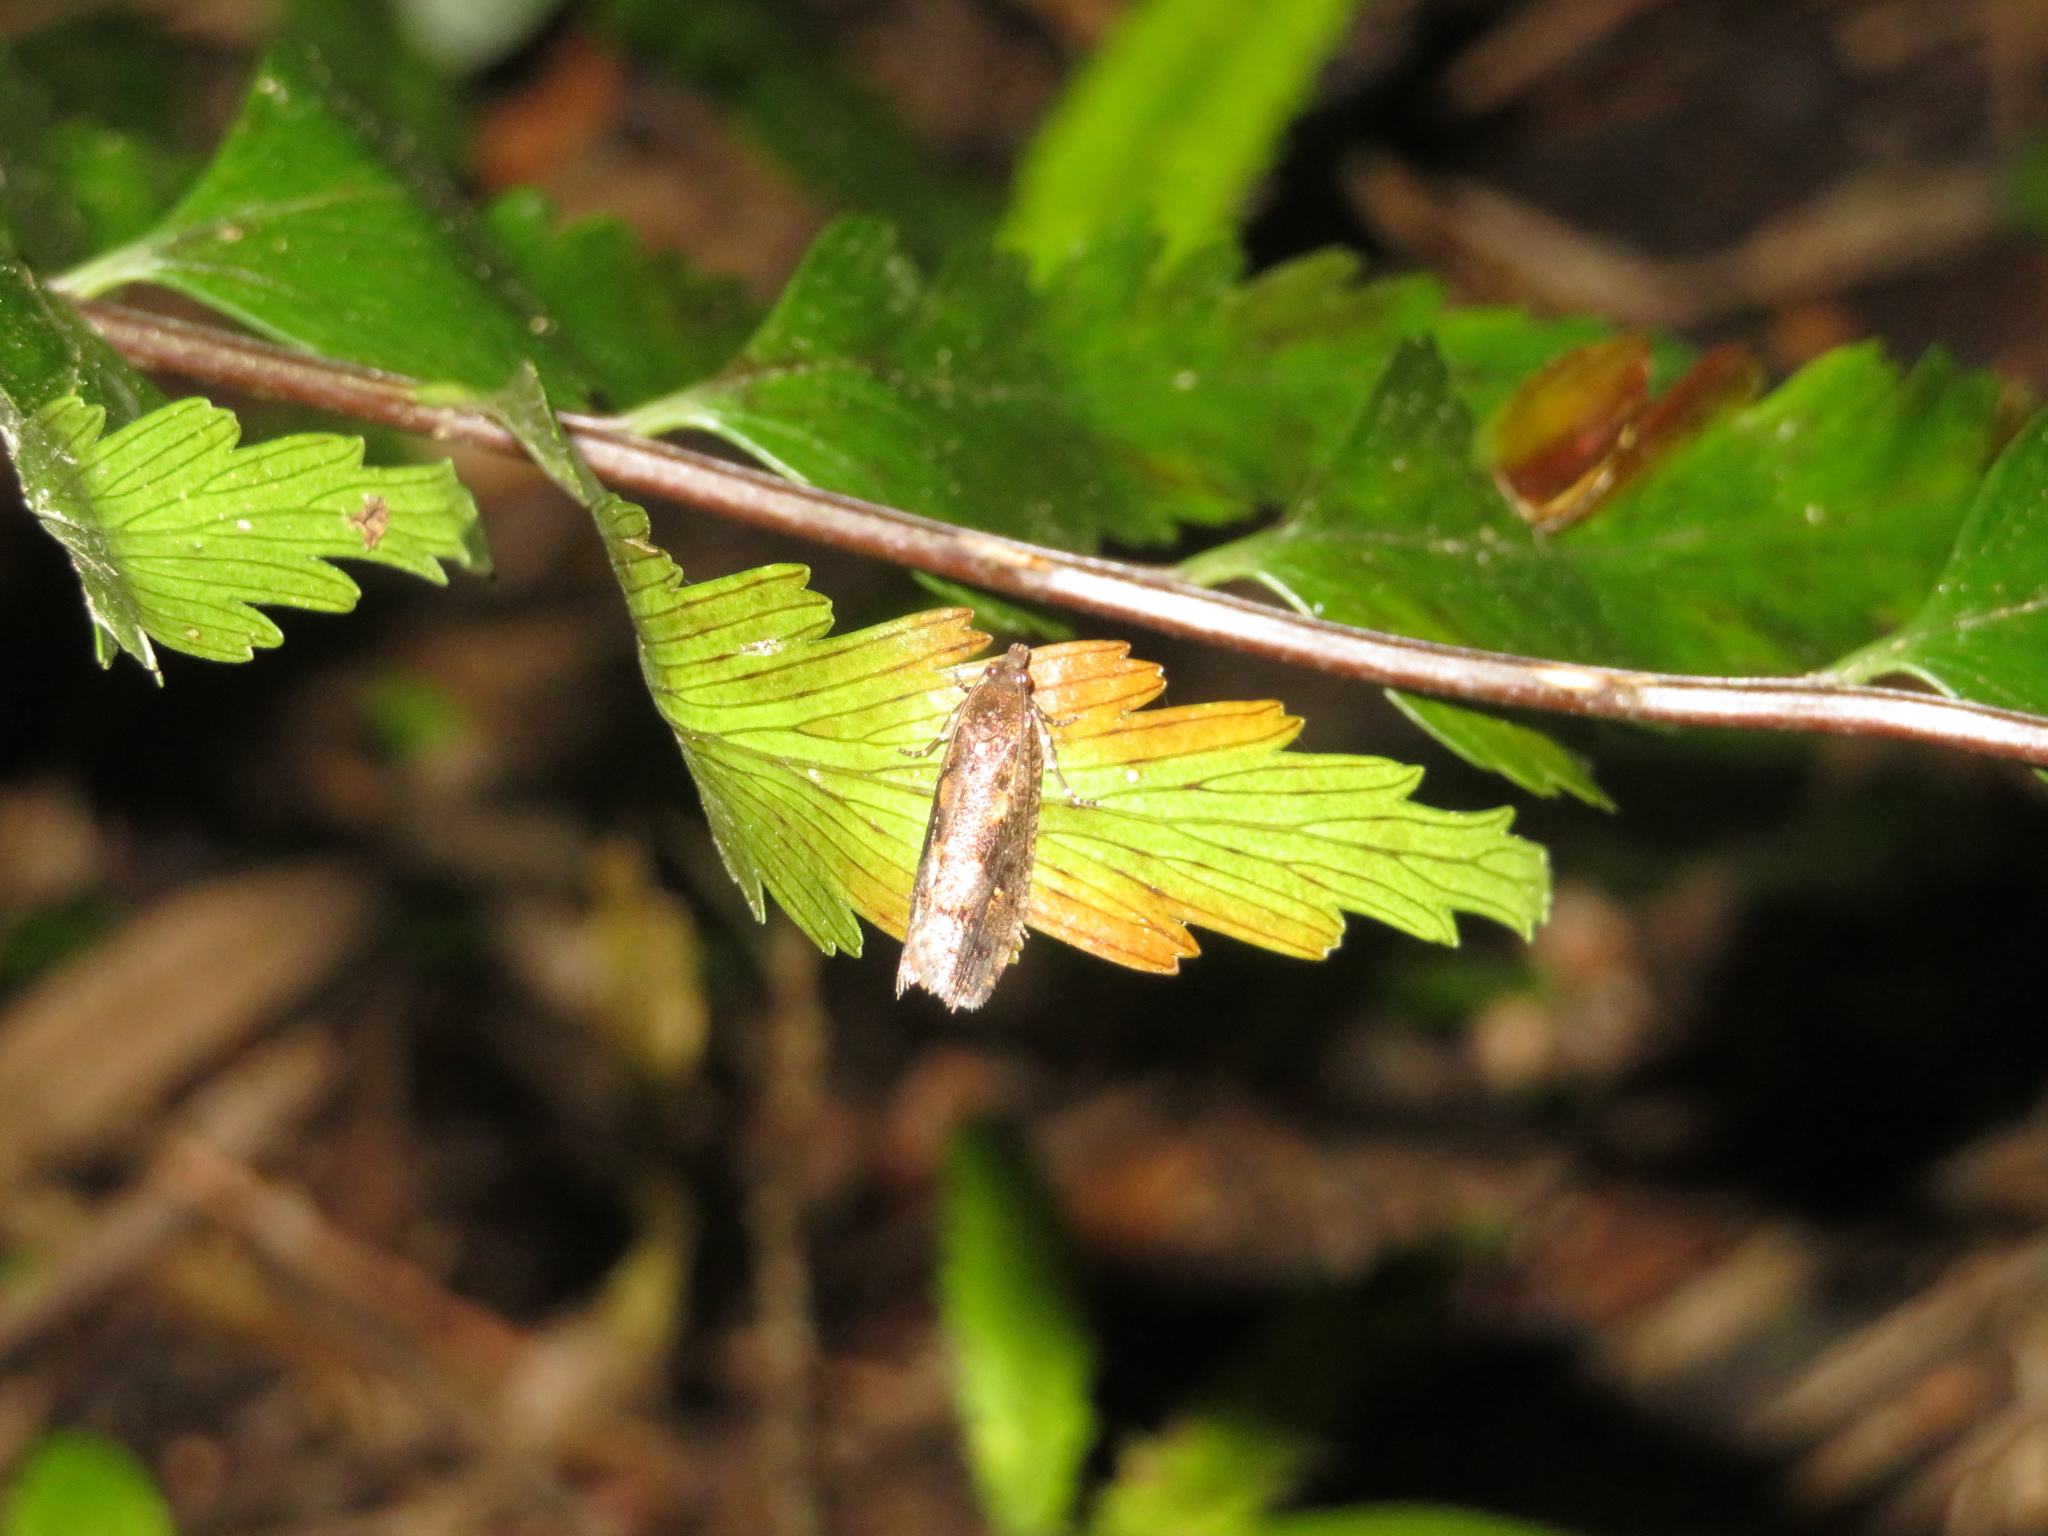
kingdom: Animalia
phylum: Arthropoda
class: Insecta
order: Lepidoptera
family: Tortricidae
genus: Cryptaspasma
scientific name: Cryptaspasma querula
